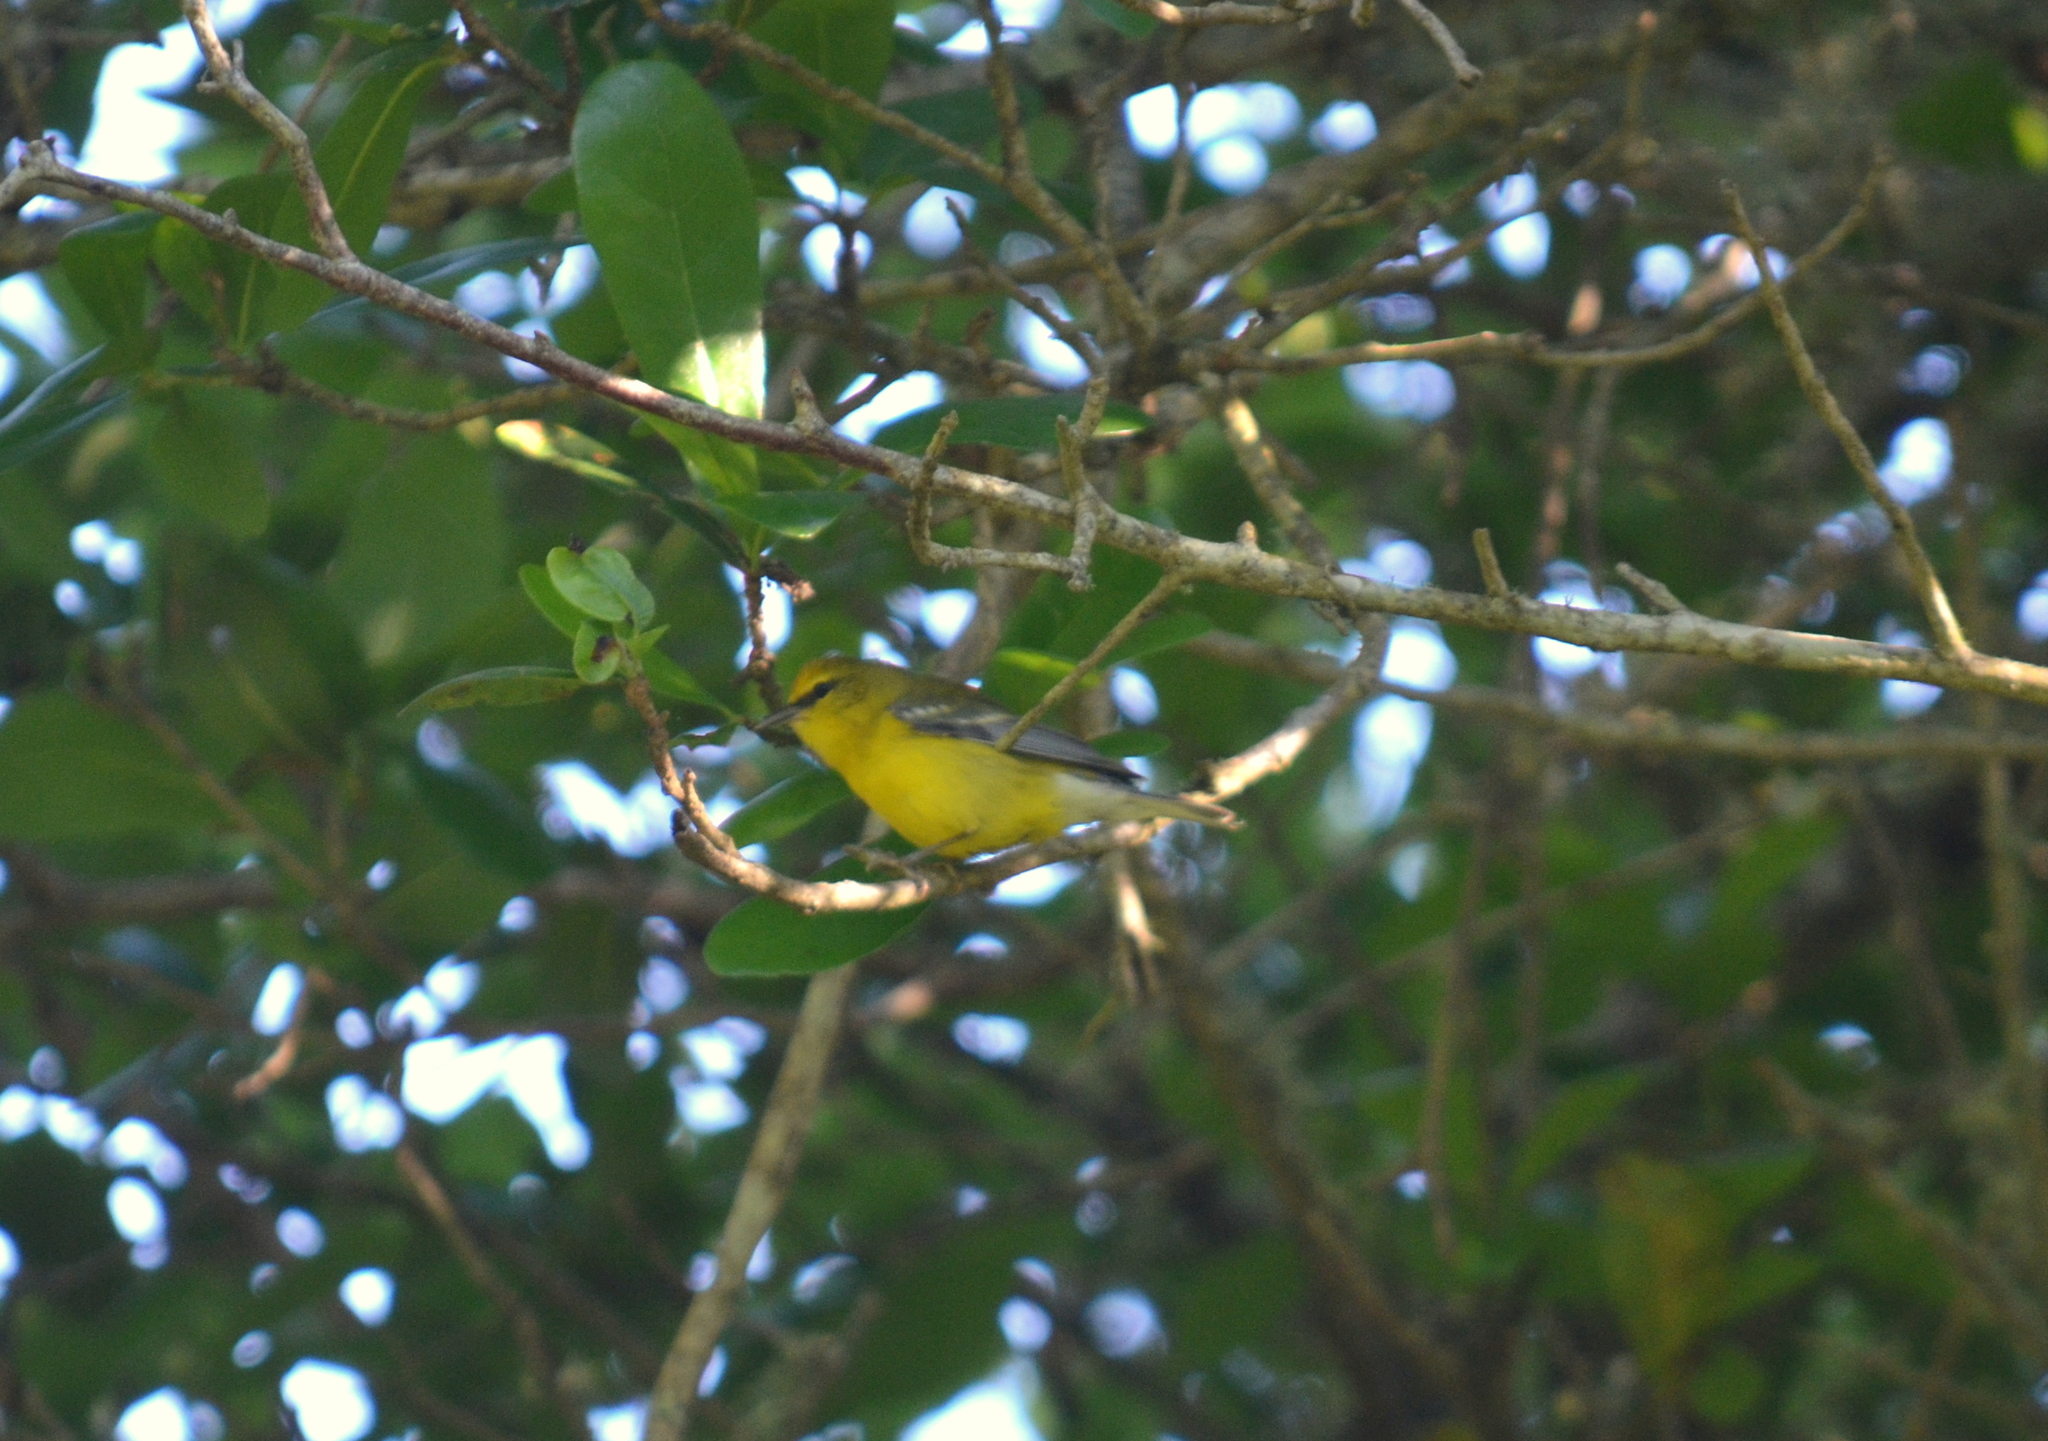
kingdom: Animalia
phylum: Chordata
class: Aves
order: Passeriformes
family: Parulidae
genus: Vermivora
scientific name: Vermivora cyanoptera
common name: Blue-winged warbler
